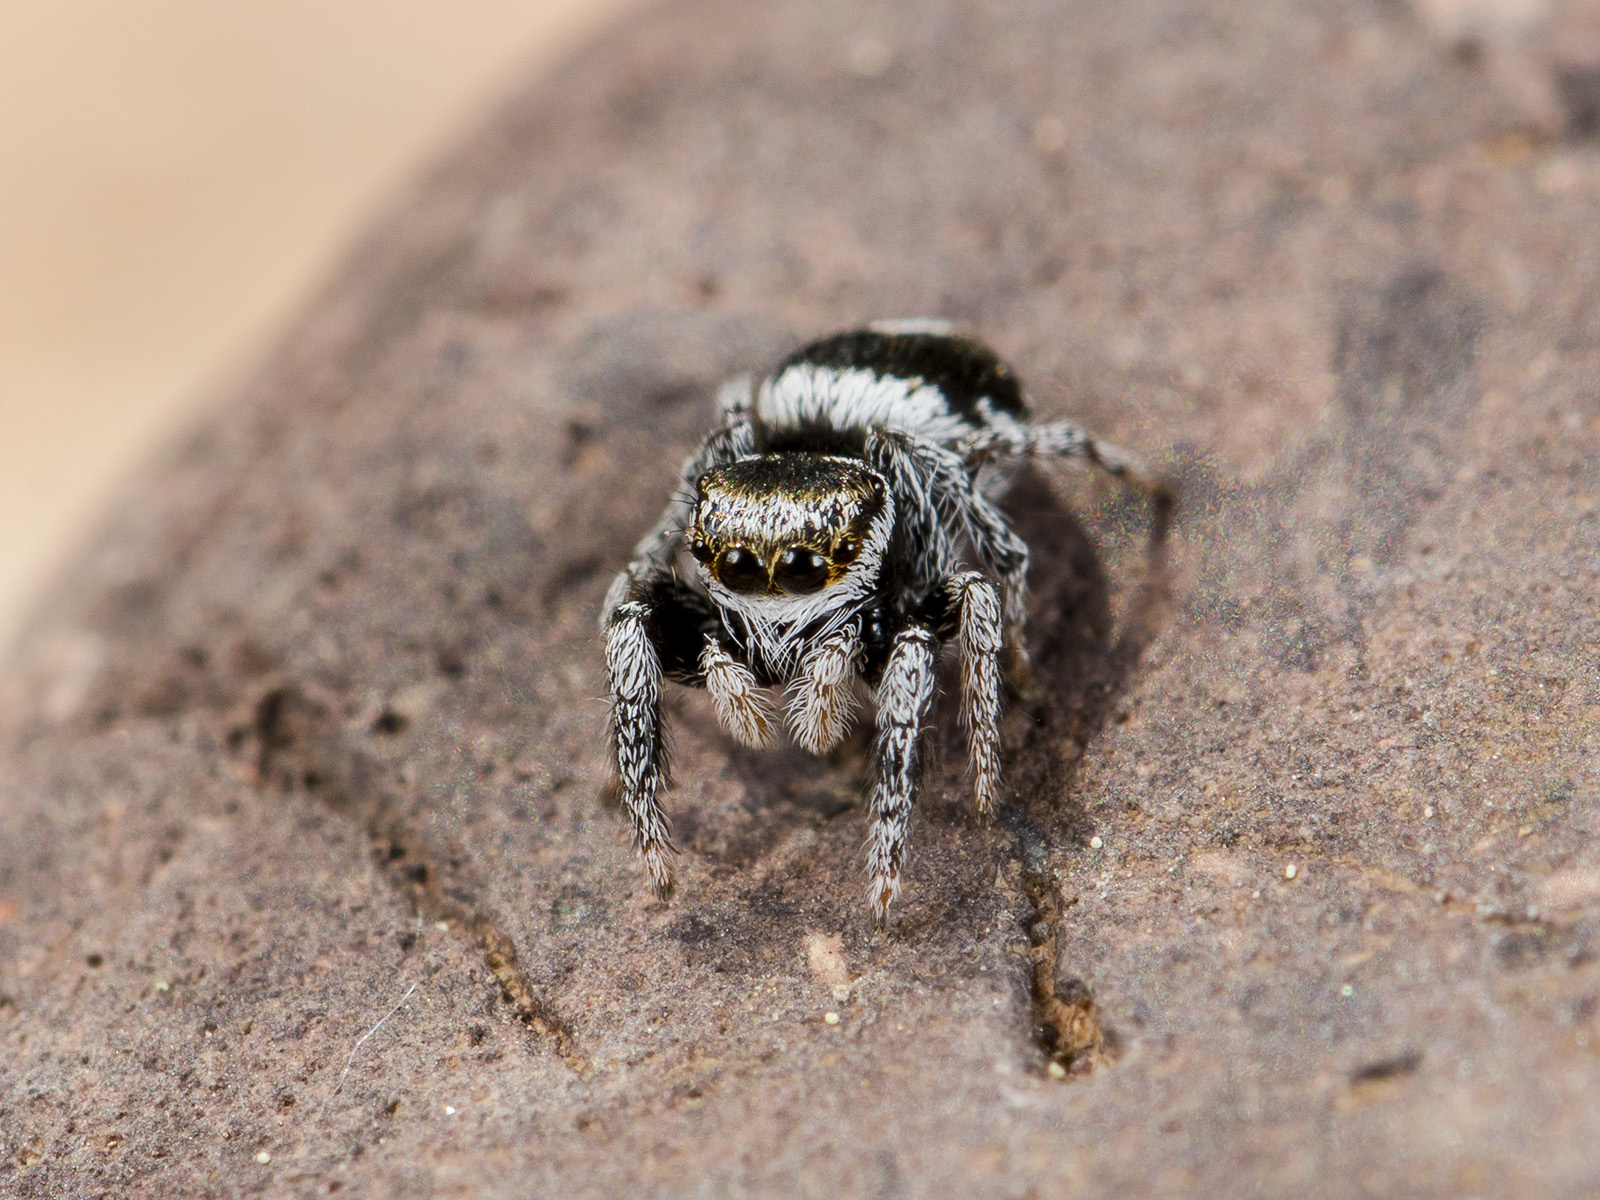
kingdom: Animalia
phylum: Arthropoda
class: Arachnida
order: Araneae
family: Salticidae
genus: Pellenes
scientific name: Pellenes geniculatus
